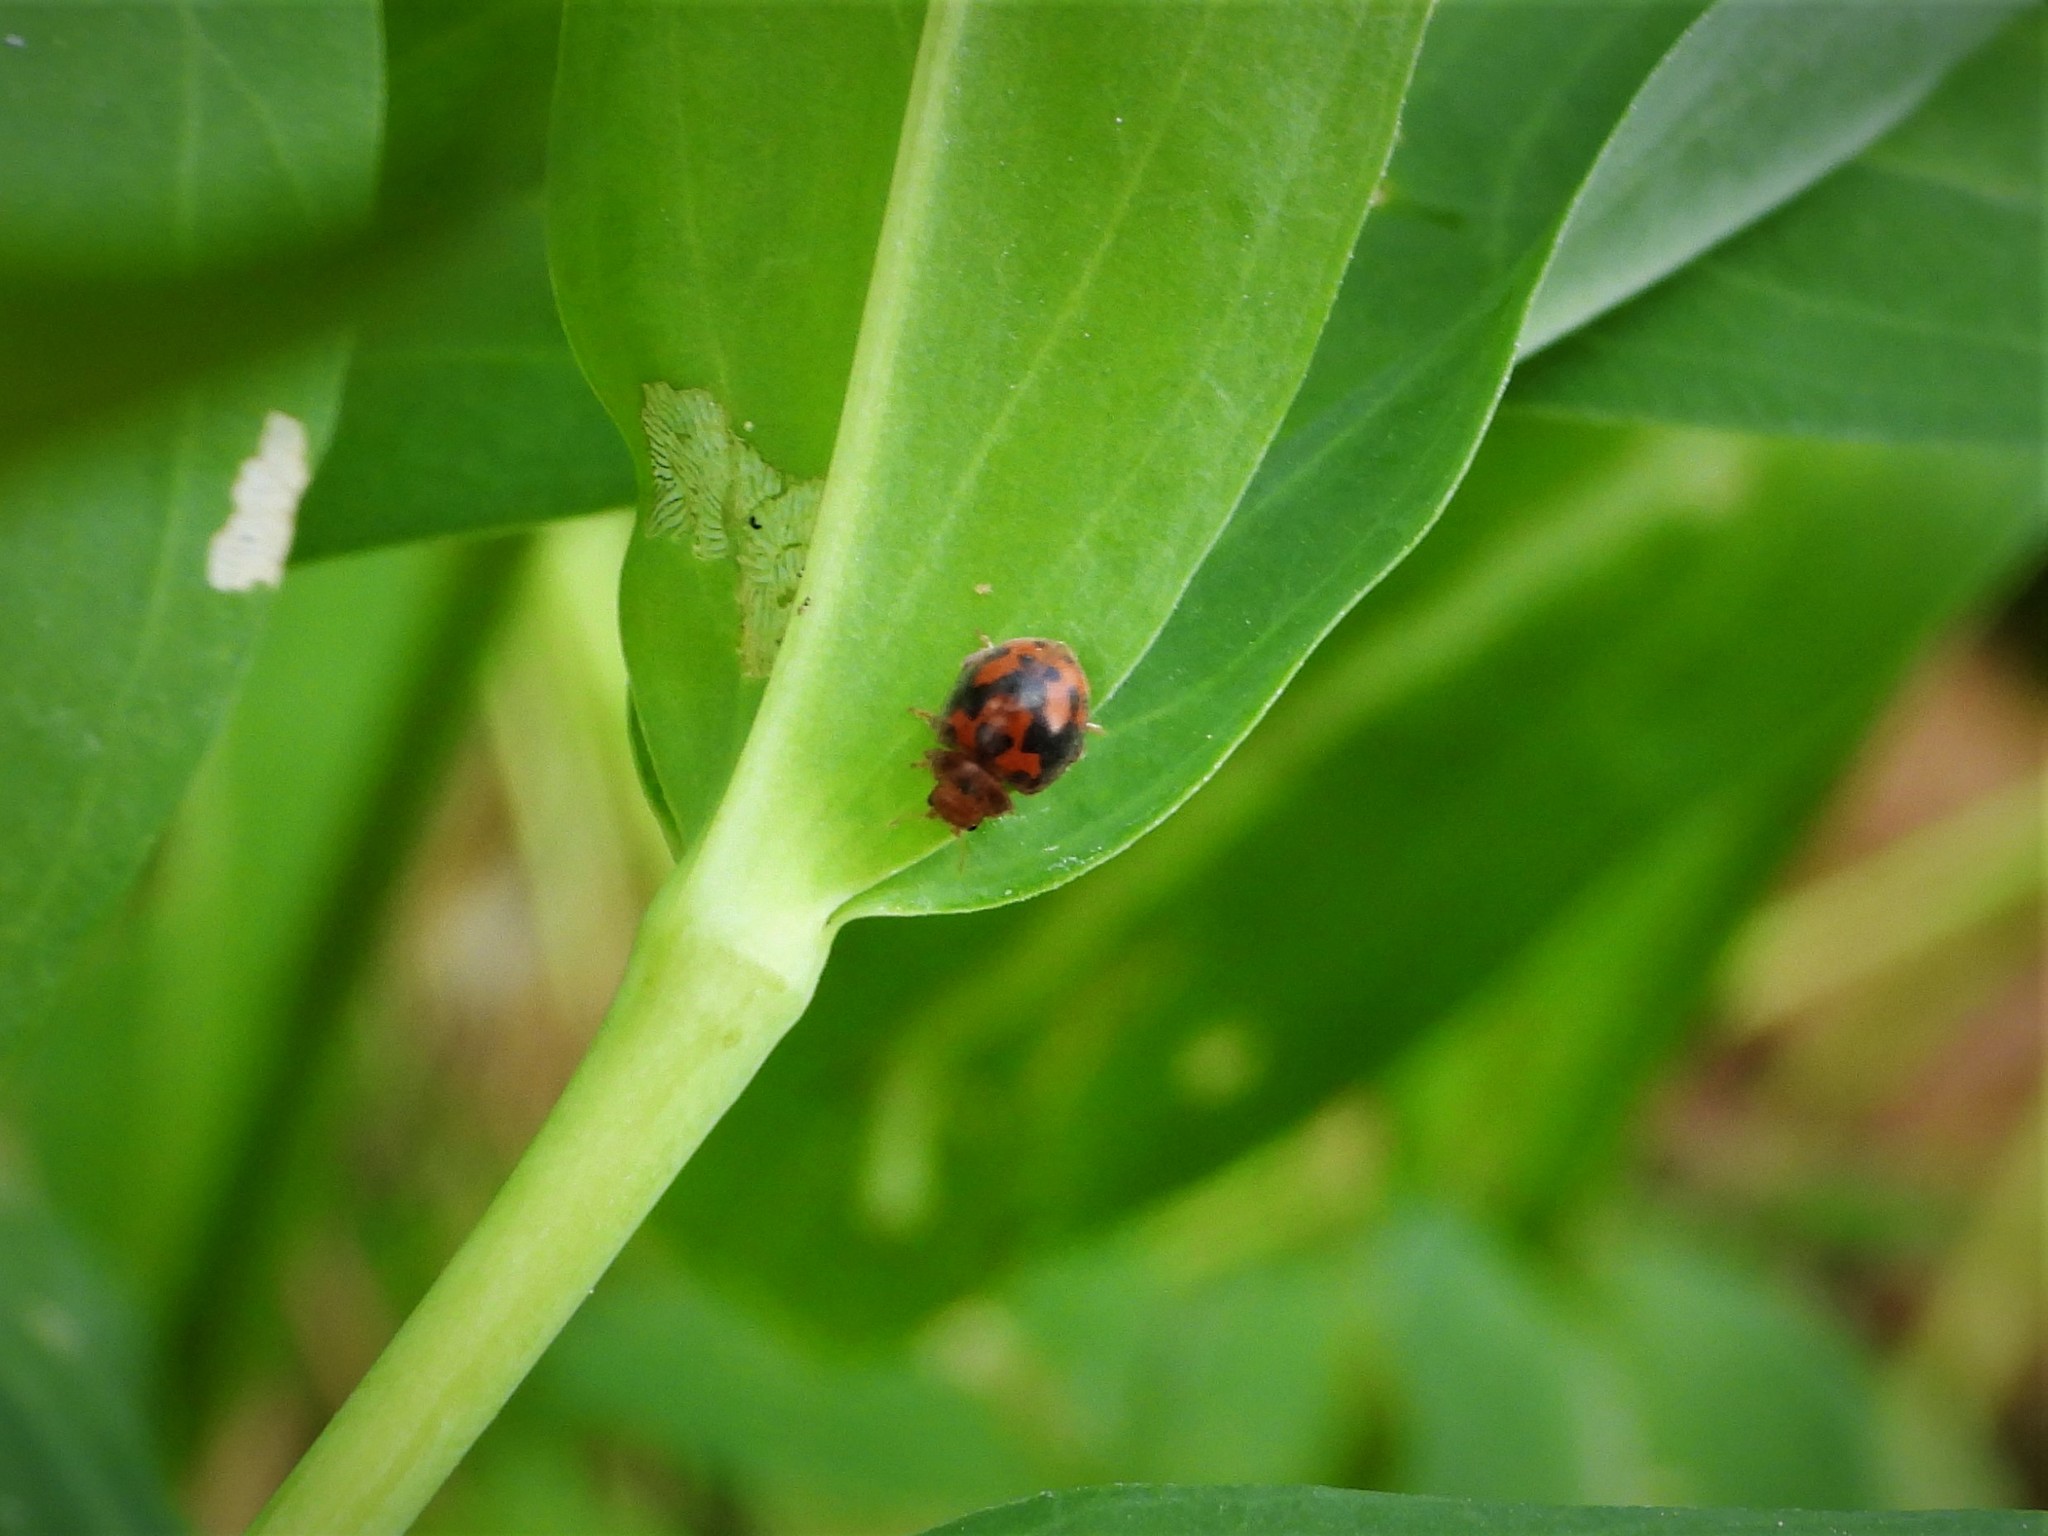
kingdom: Animalia
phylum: Arthropoda
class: Insecta
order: Coleoptera
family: Coccinellidae
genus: Subcoccinella
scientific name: Subcoccinella vigintiquatuorpunctata
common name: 24-spot ladybird
